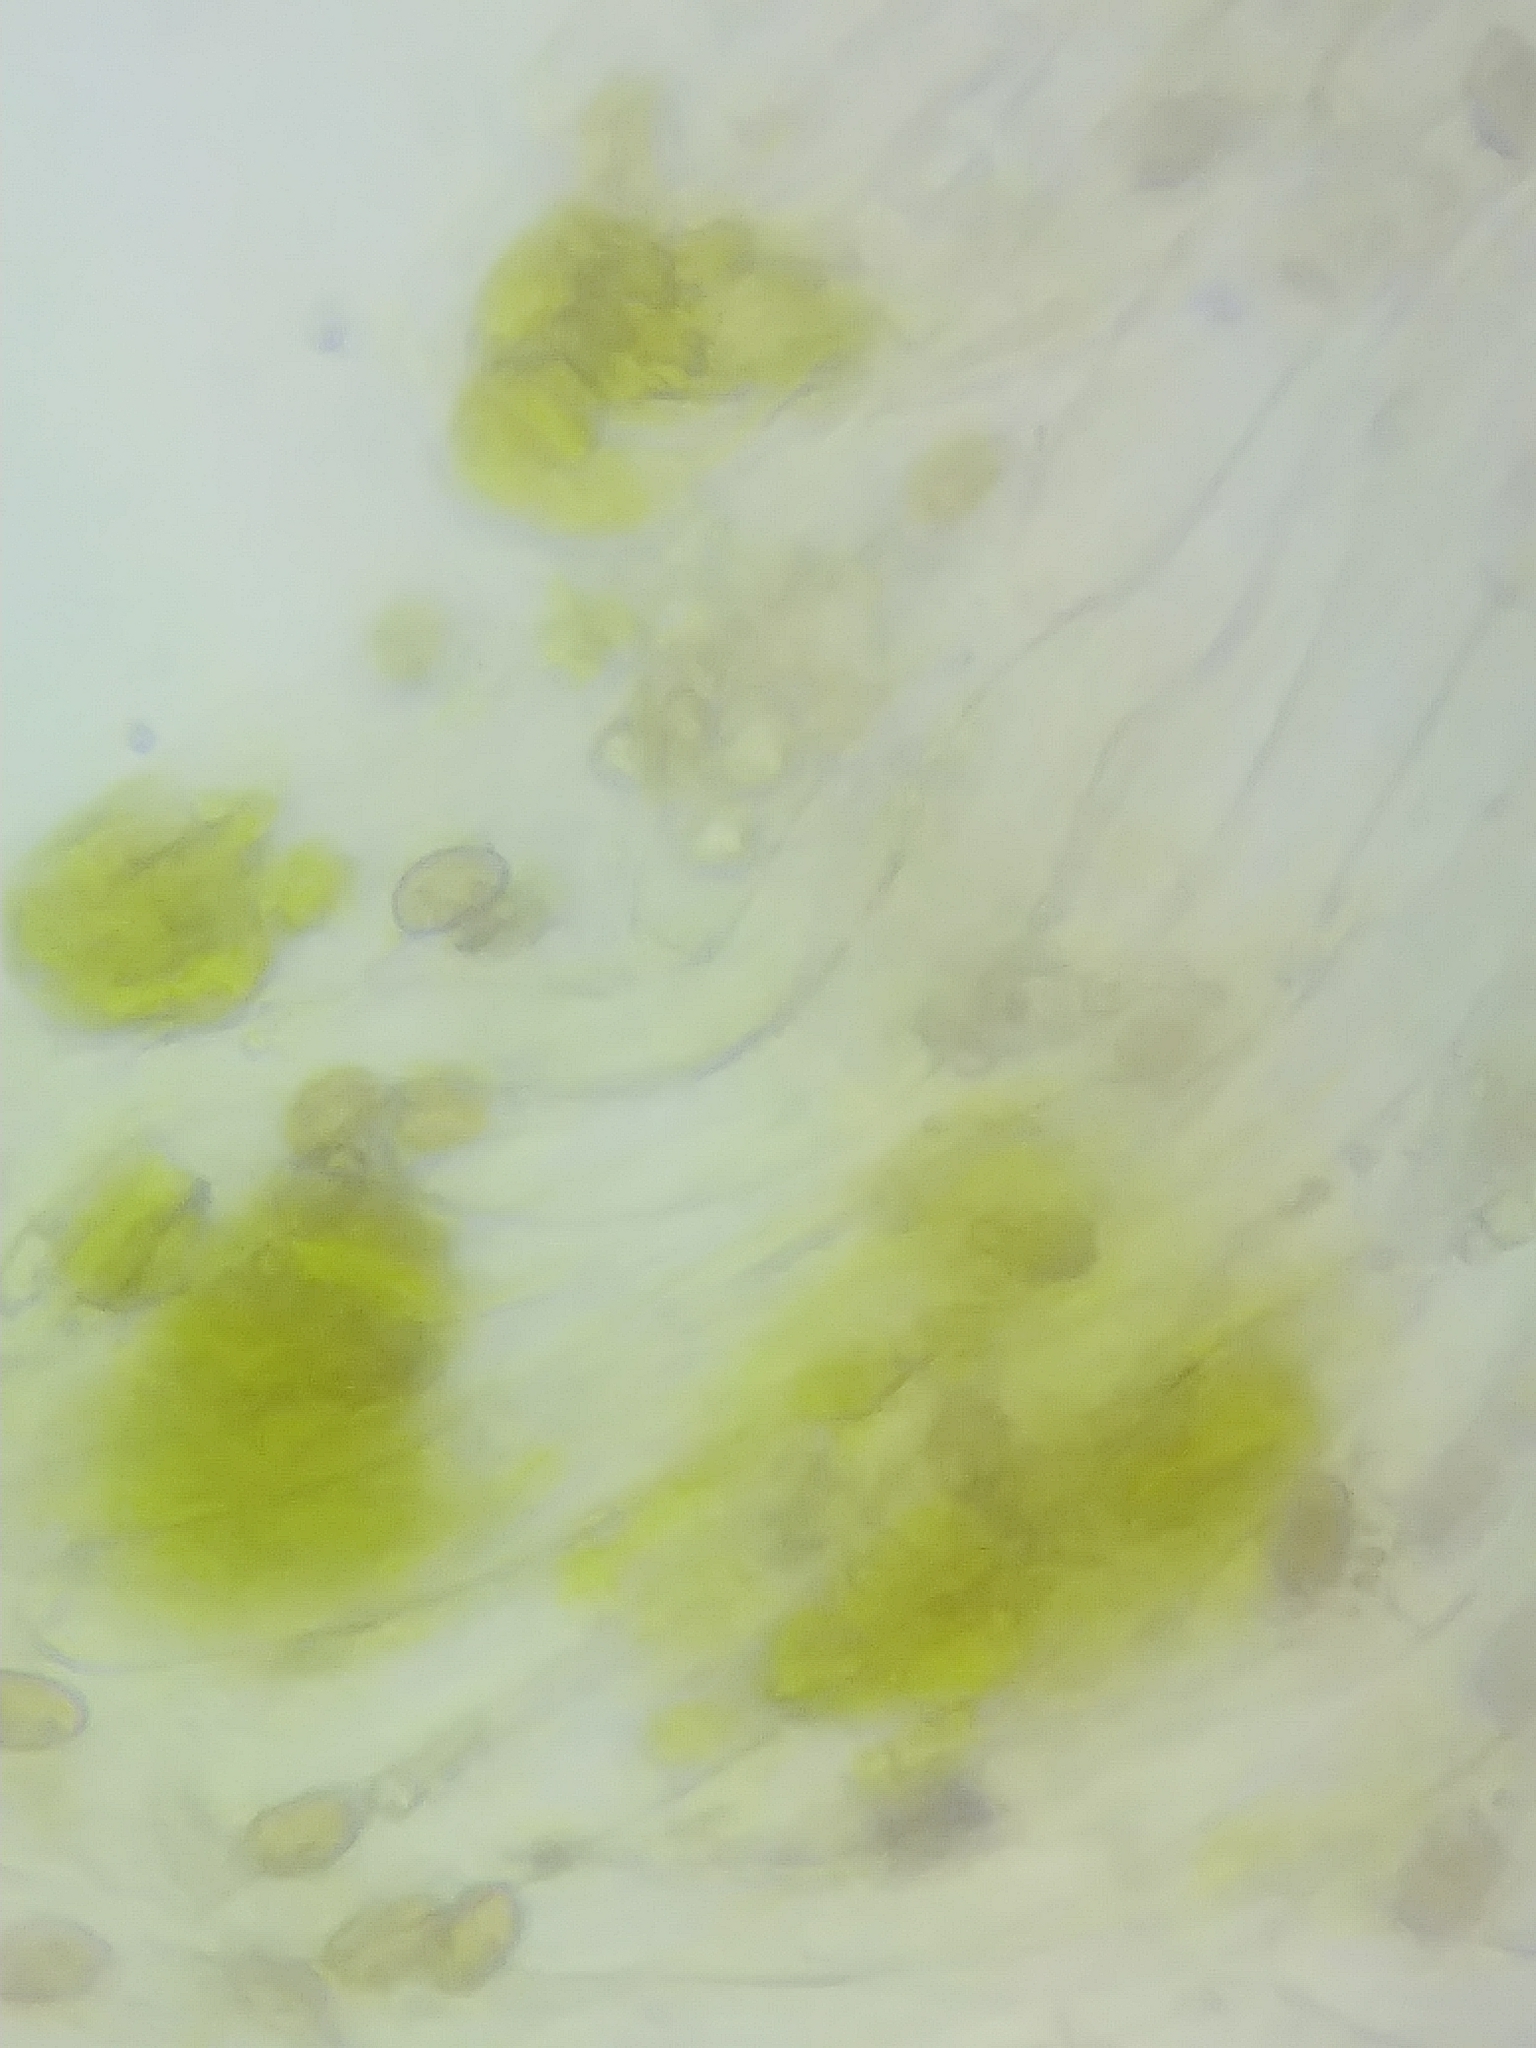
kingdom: Fungi
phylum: Basidiomycota
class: Agaricomycetes
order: Agaricales
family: Cortinariaceae
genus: Cortinarius
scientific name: Cortinarius bataillei
